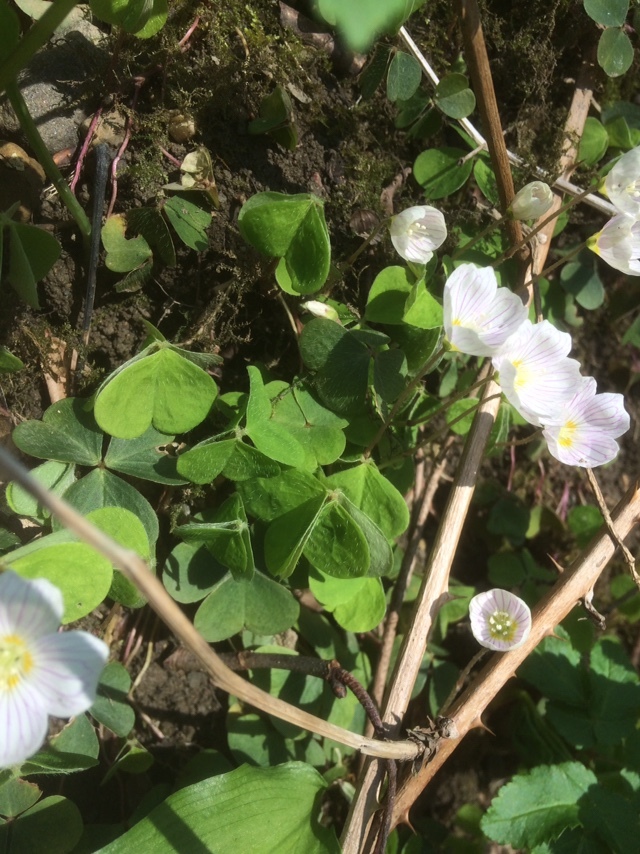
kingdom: Plantae
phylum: Tracheophyta
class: Magnoliopsida
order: Oxalidales
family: Oxalidaceae
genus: Oxalis
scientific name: Oxalis acetosella
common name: Wood-sorrel
